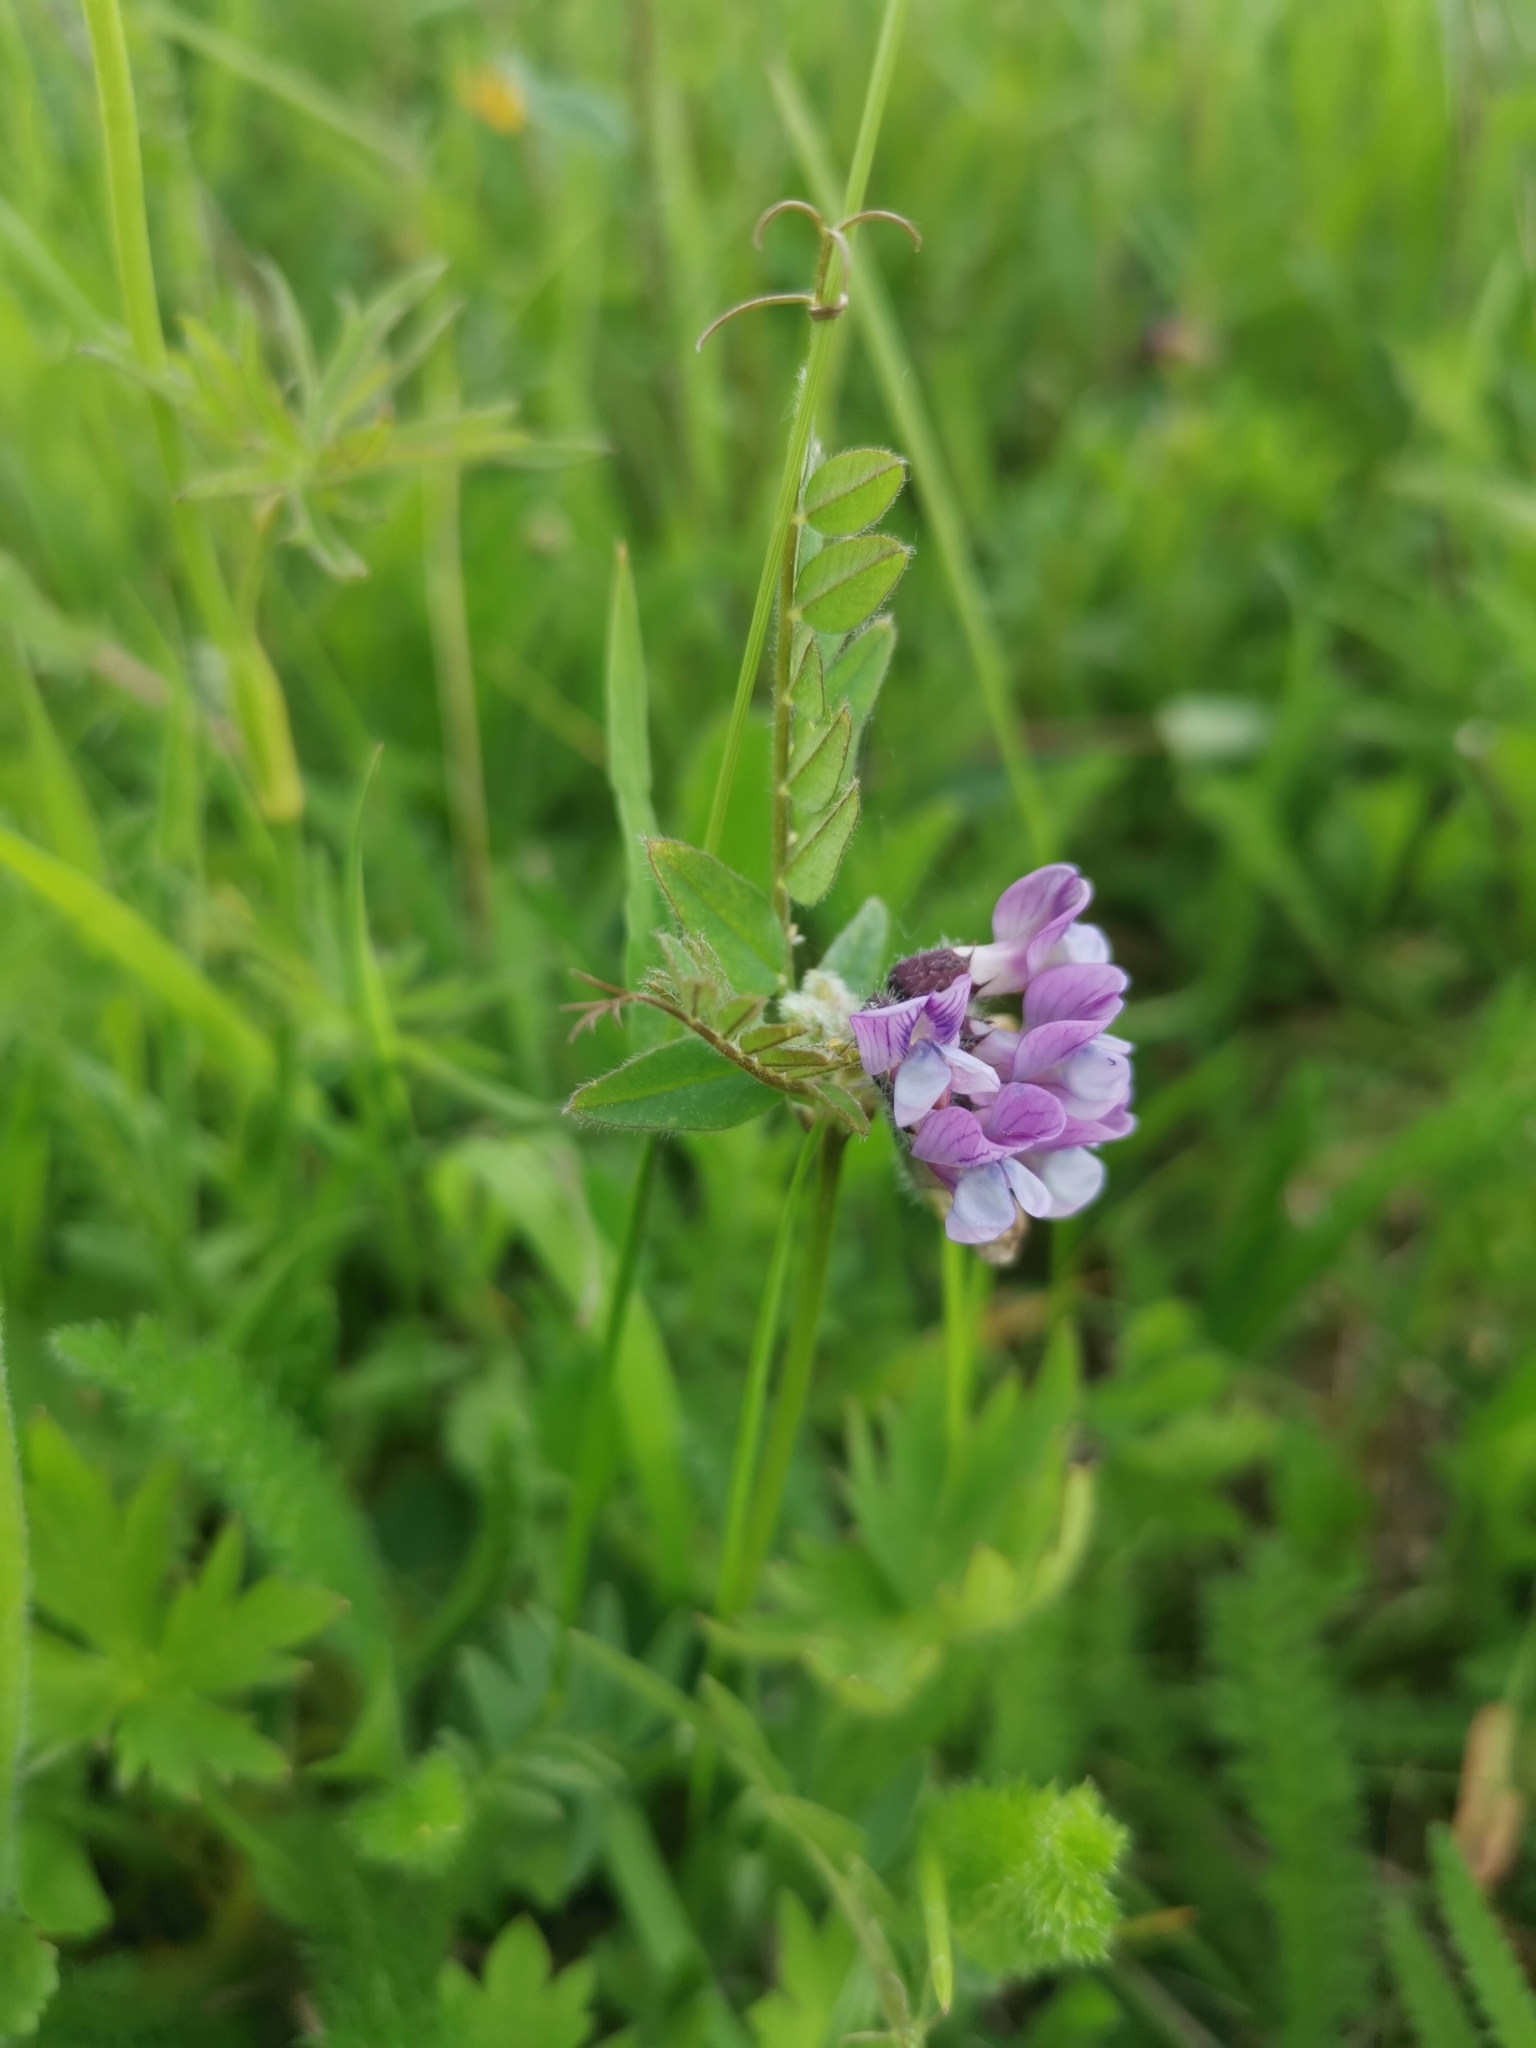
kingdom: Plantae
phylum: Tracheophyta
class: Magnoliopsida
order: Fabales
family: Fabaceae
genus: Vicia
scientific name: Vicia sepium
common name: Bush vetch
